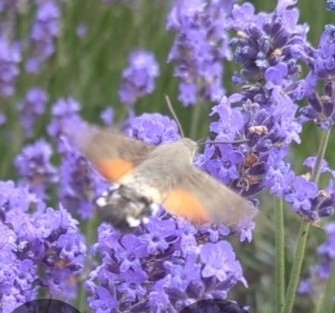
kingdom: Animalia
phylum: Arthropoda
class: Insecta
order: Lepidoptera
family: Sphingidae
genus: Macroglossum
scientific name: Macroglossum stellatarum
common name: Humming-bird hawk-moth
